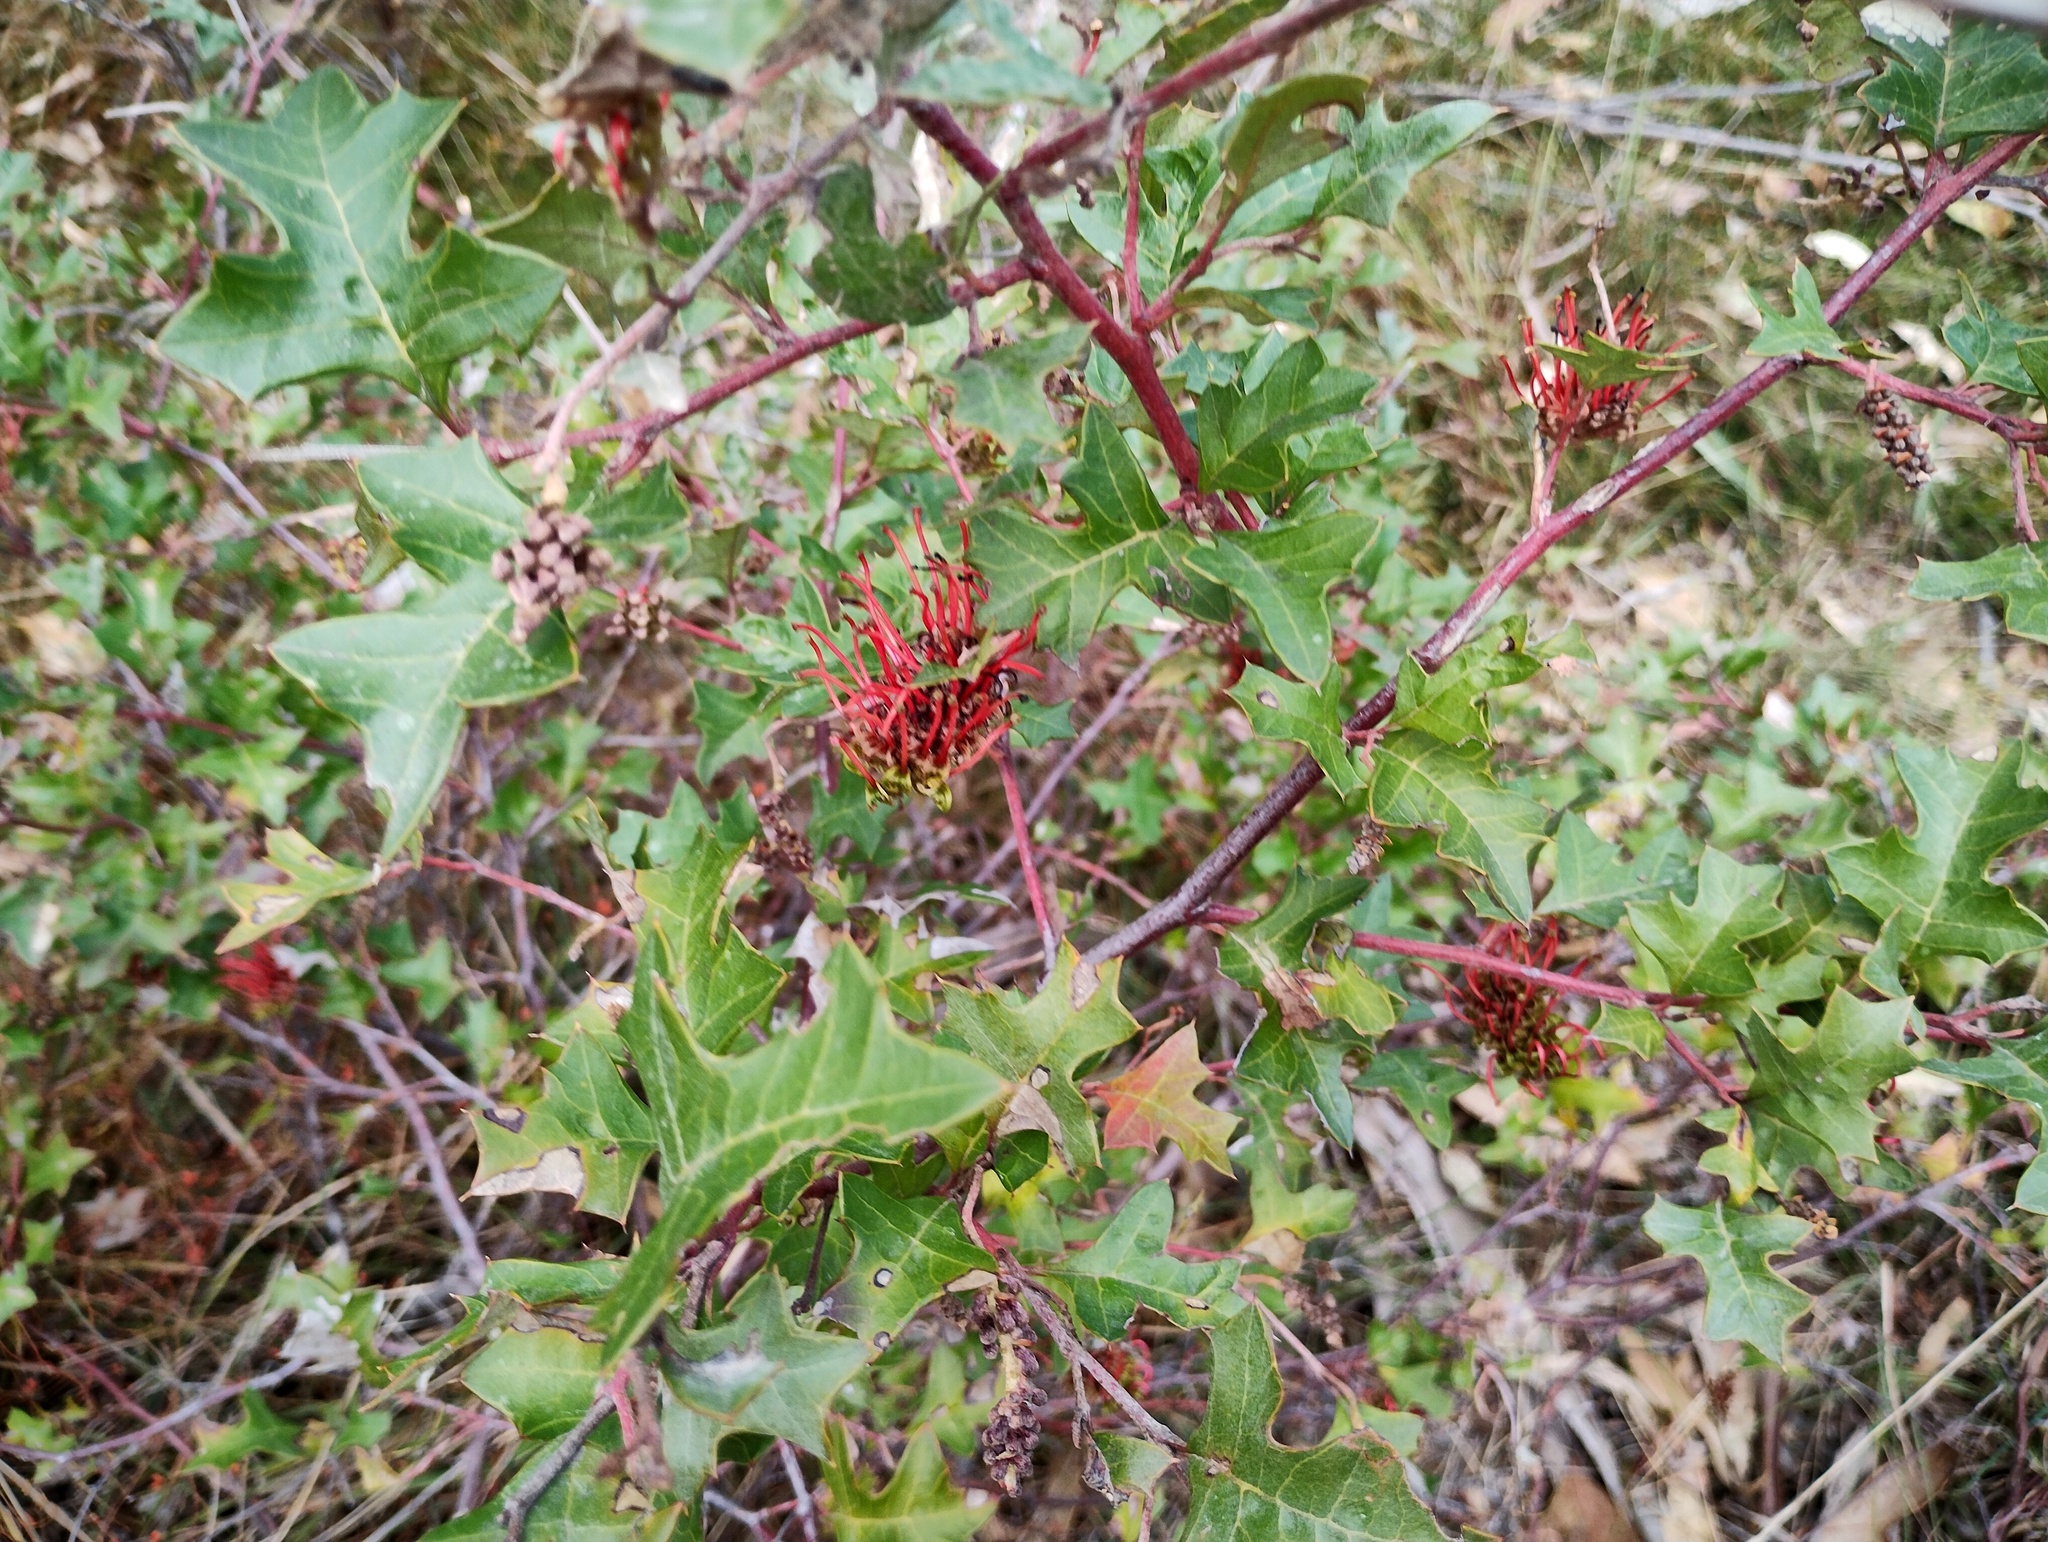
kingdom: Plantae
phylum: Tracheophyta
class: Magnoliopsida
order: Proteales
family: Proteaceae
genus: Grevillea
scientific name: Grevillea steiglitziana
